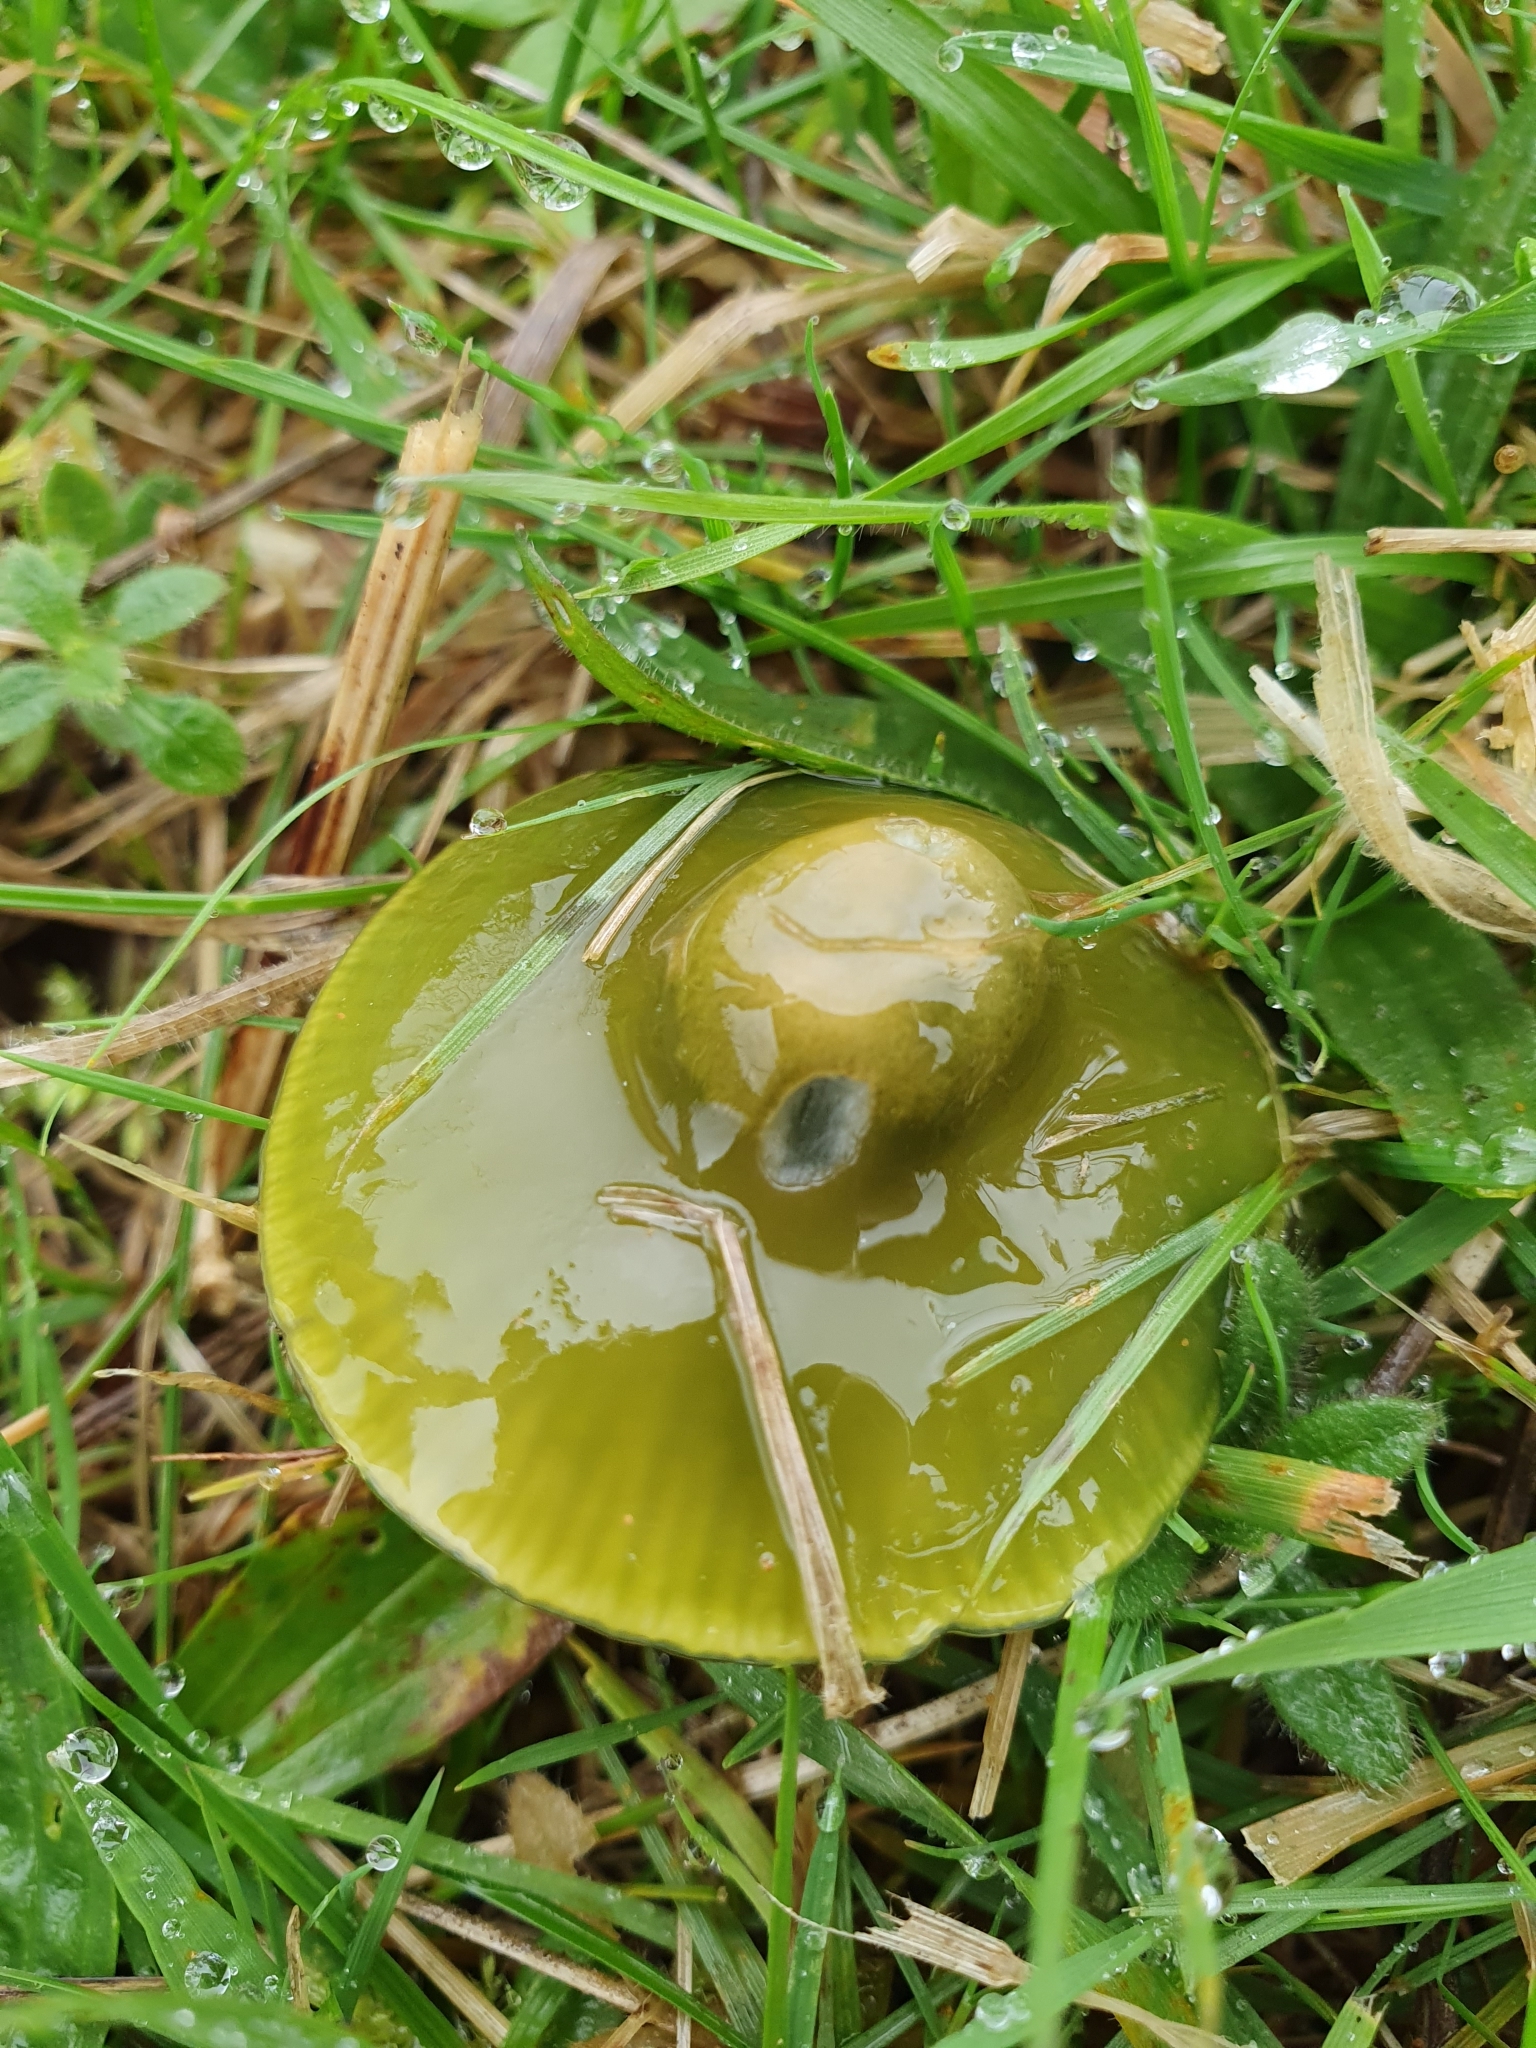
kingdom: Fungi
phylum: Basidiomycota
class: Agaricomycetes
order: Agaricales
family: Hygrophoraceae
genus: Gliophorus
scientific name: Gliophorus psittacinus
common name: Parrot wax-cap
